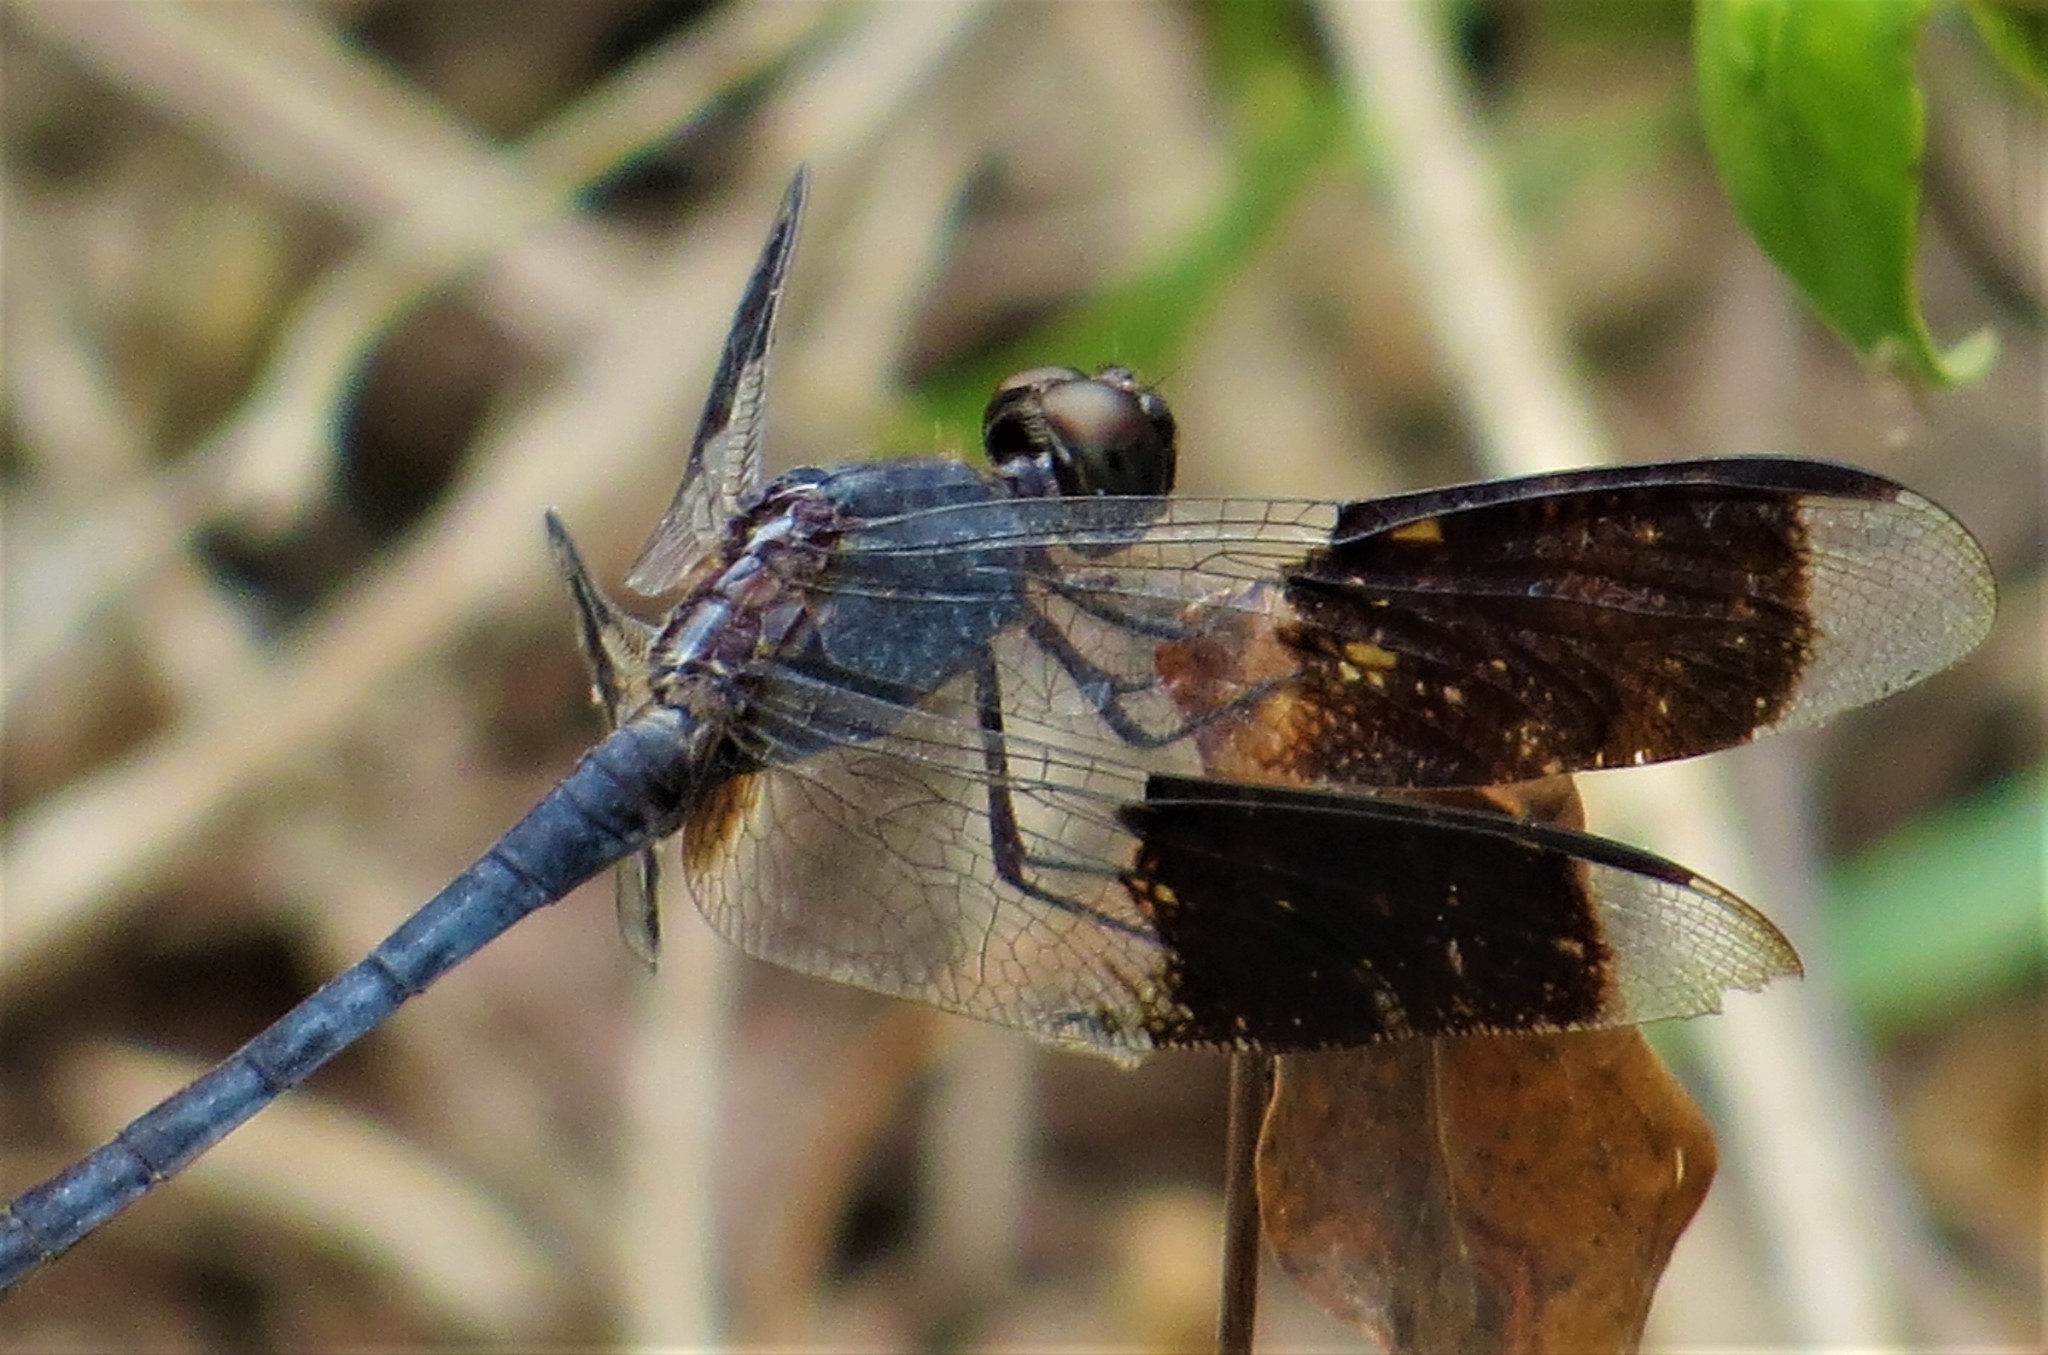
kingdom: Animalia
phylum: Arthropoda
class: Insecta
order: Odonata
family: Libellulidae
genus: Erythrodiplax
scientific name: Erythrodiplax umbrata
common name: Band-winged dragonlet
